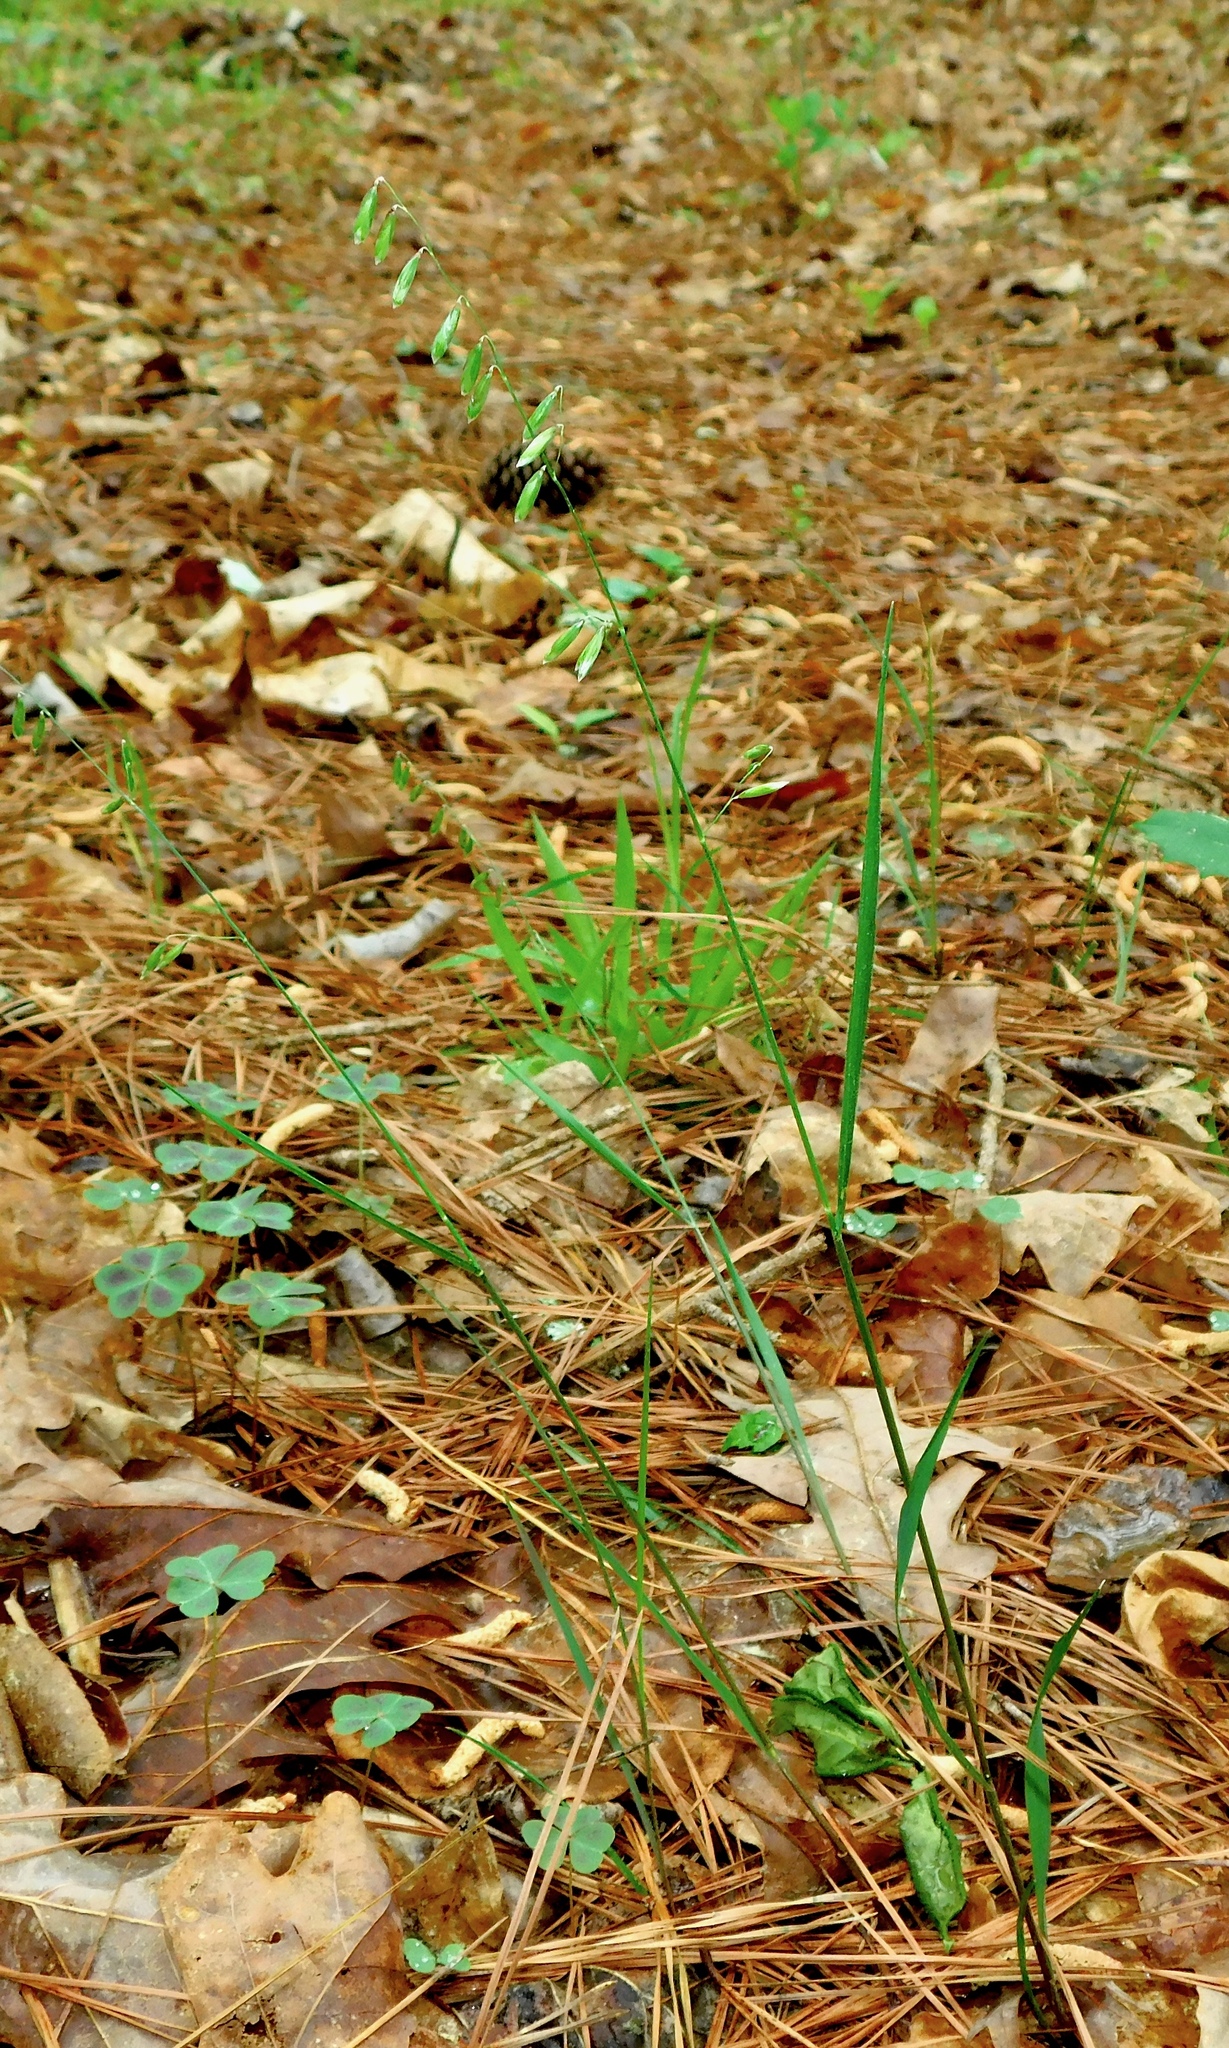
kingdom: Plantae
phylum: Tracheophyta
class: Liliopsida
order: Poales
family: Poaceae
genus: Melica
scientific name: Melica mutica
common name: Two-flower melic
